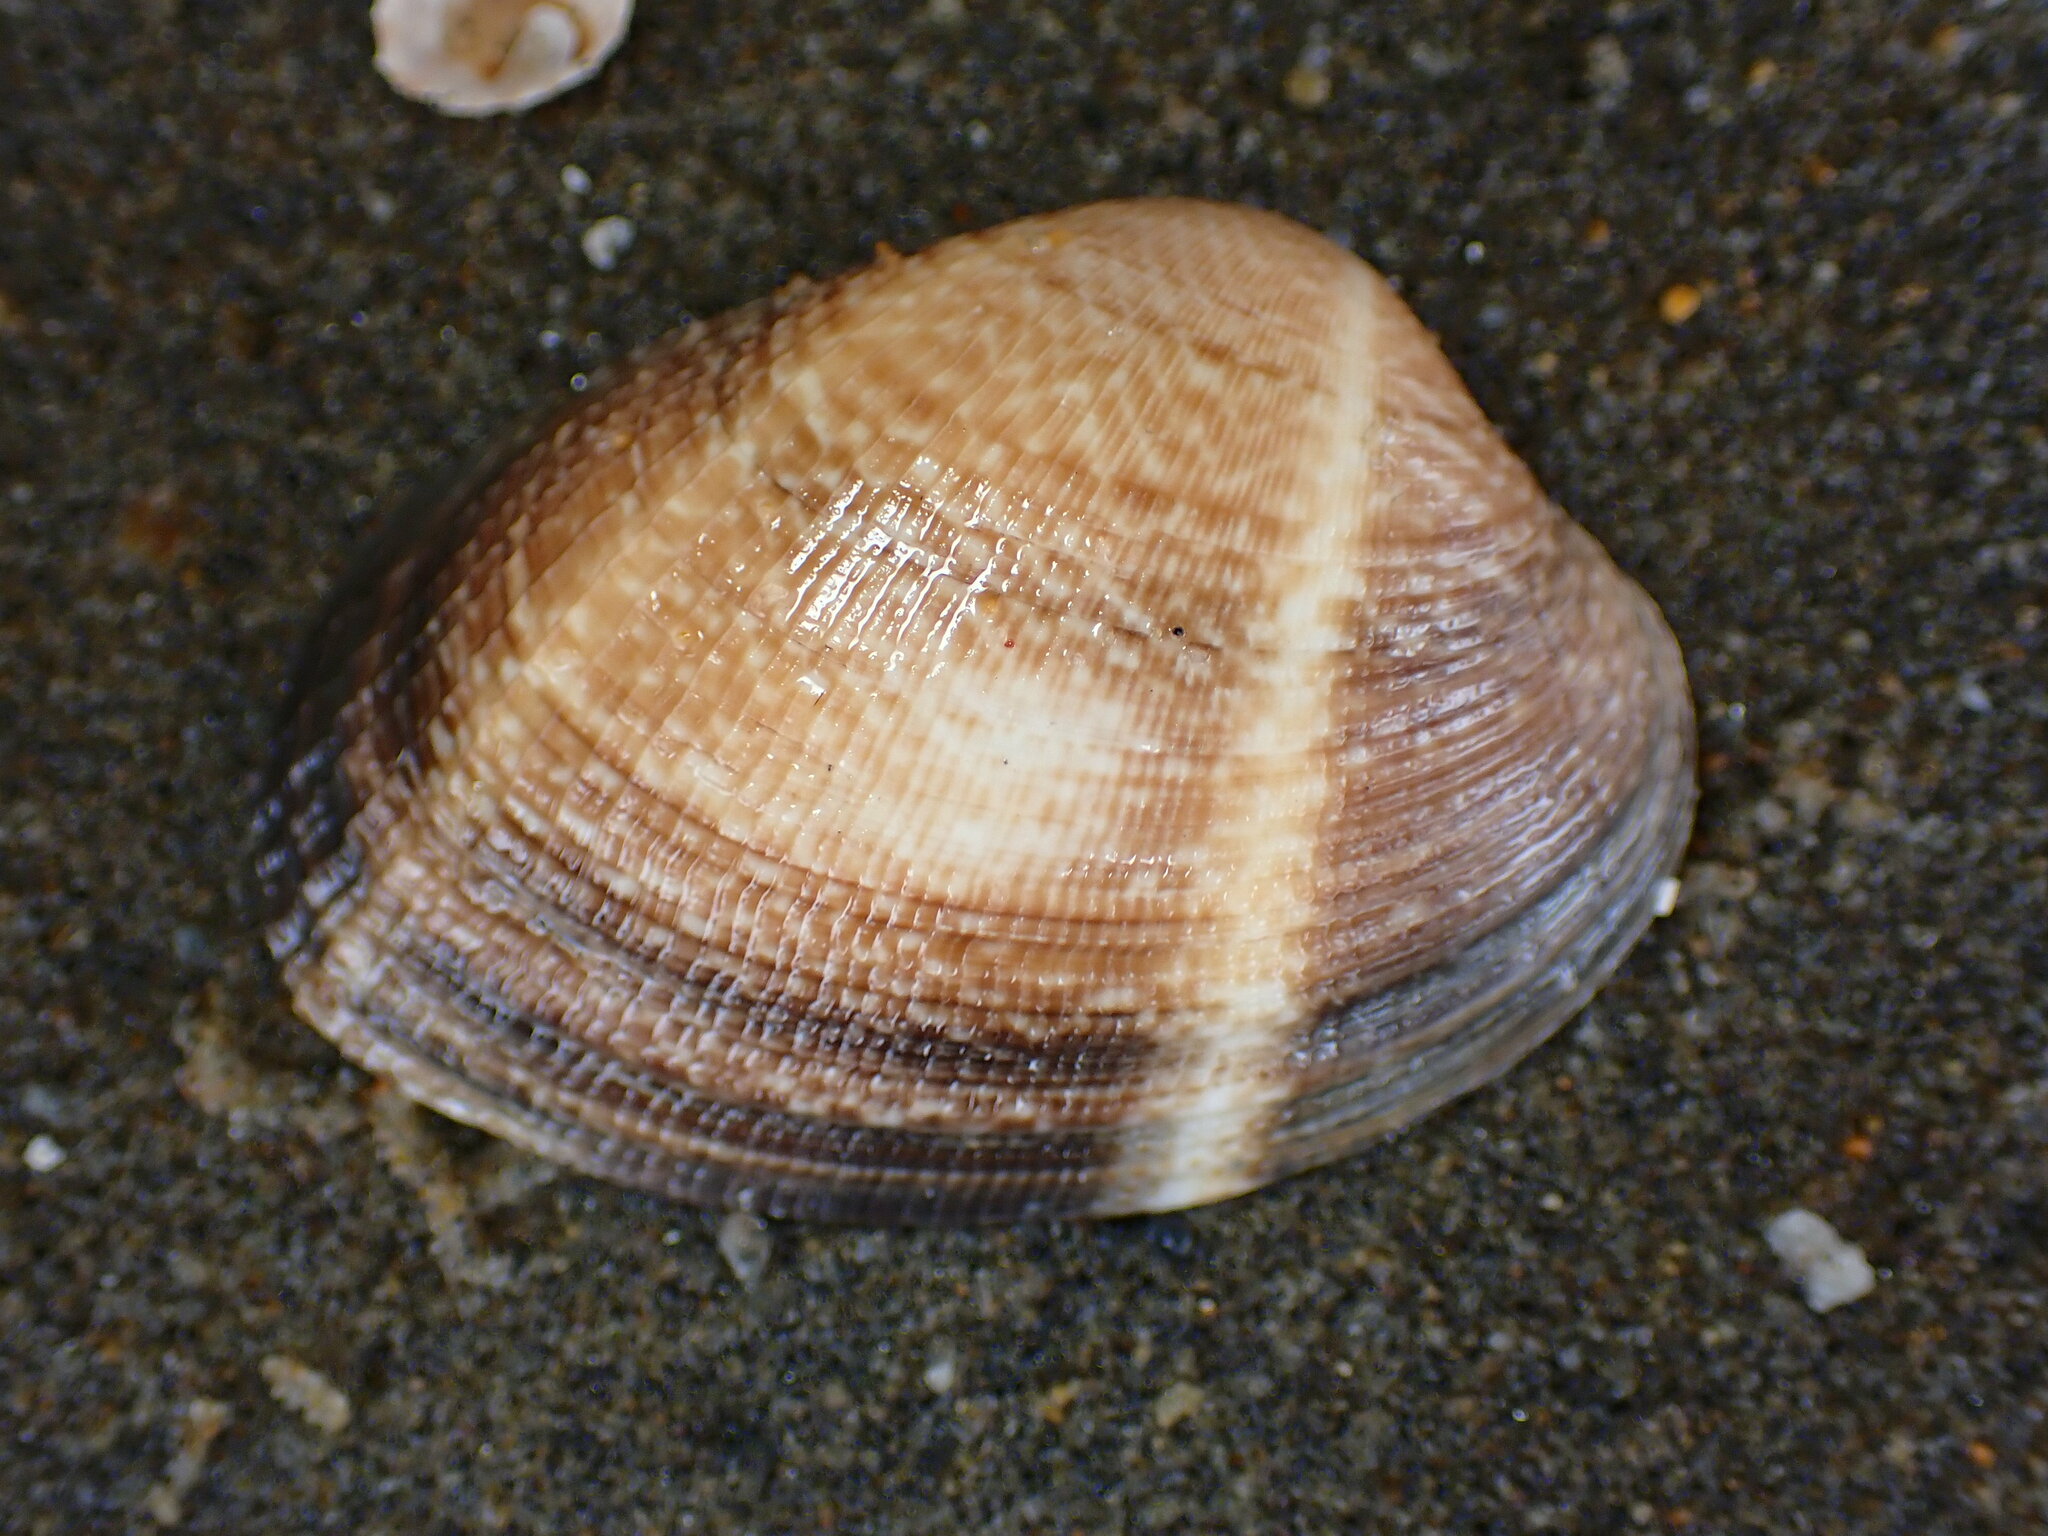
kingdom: Animalia
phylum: Mollusca
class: Bivalvia
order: Venerida
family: Veneridae
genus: Ruditapes
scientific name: Ruditapes philippinarum
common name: Manila clam
